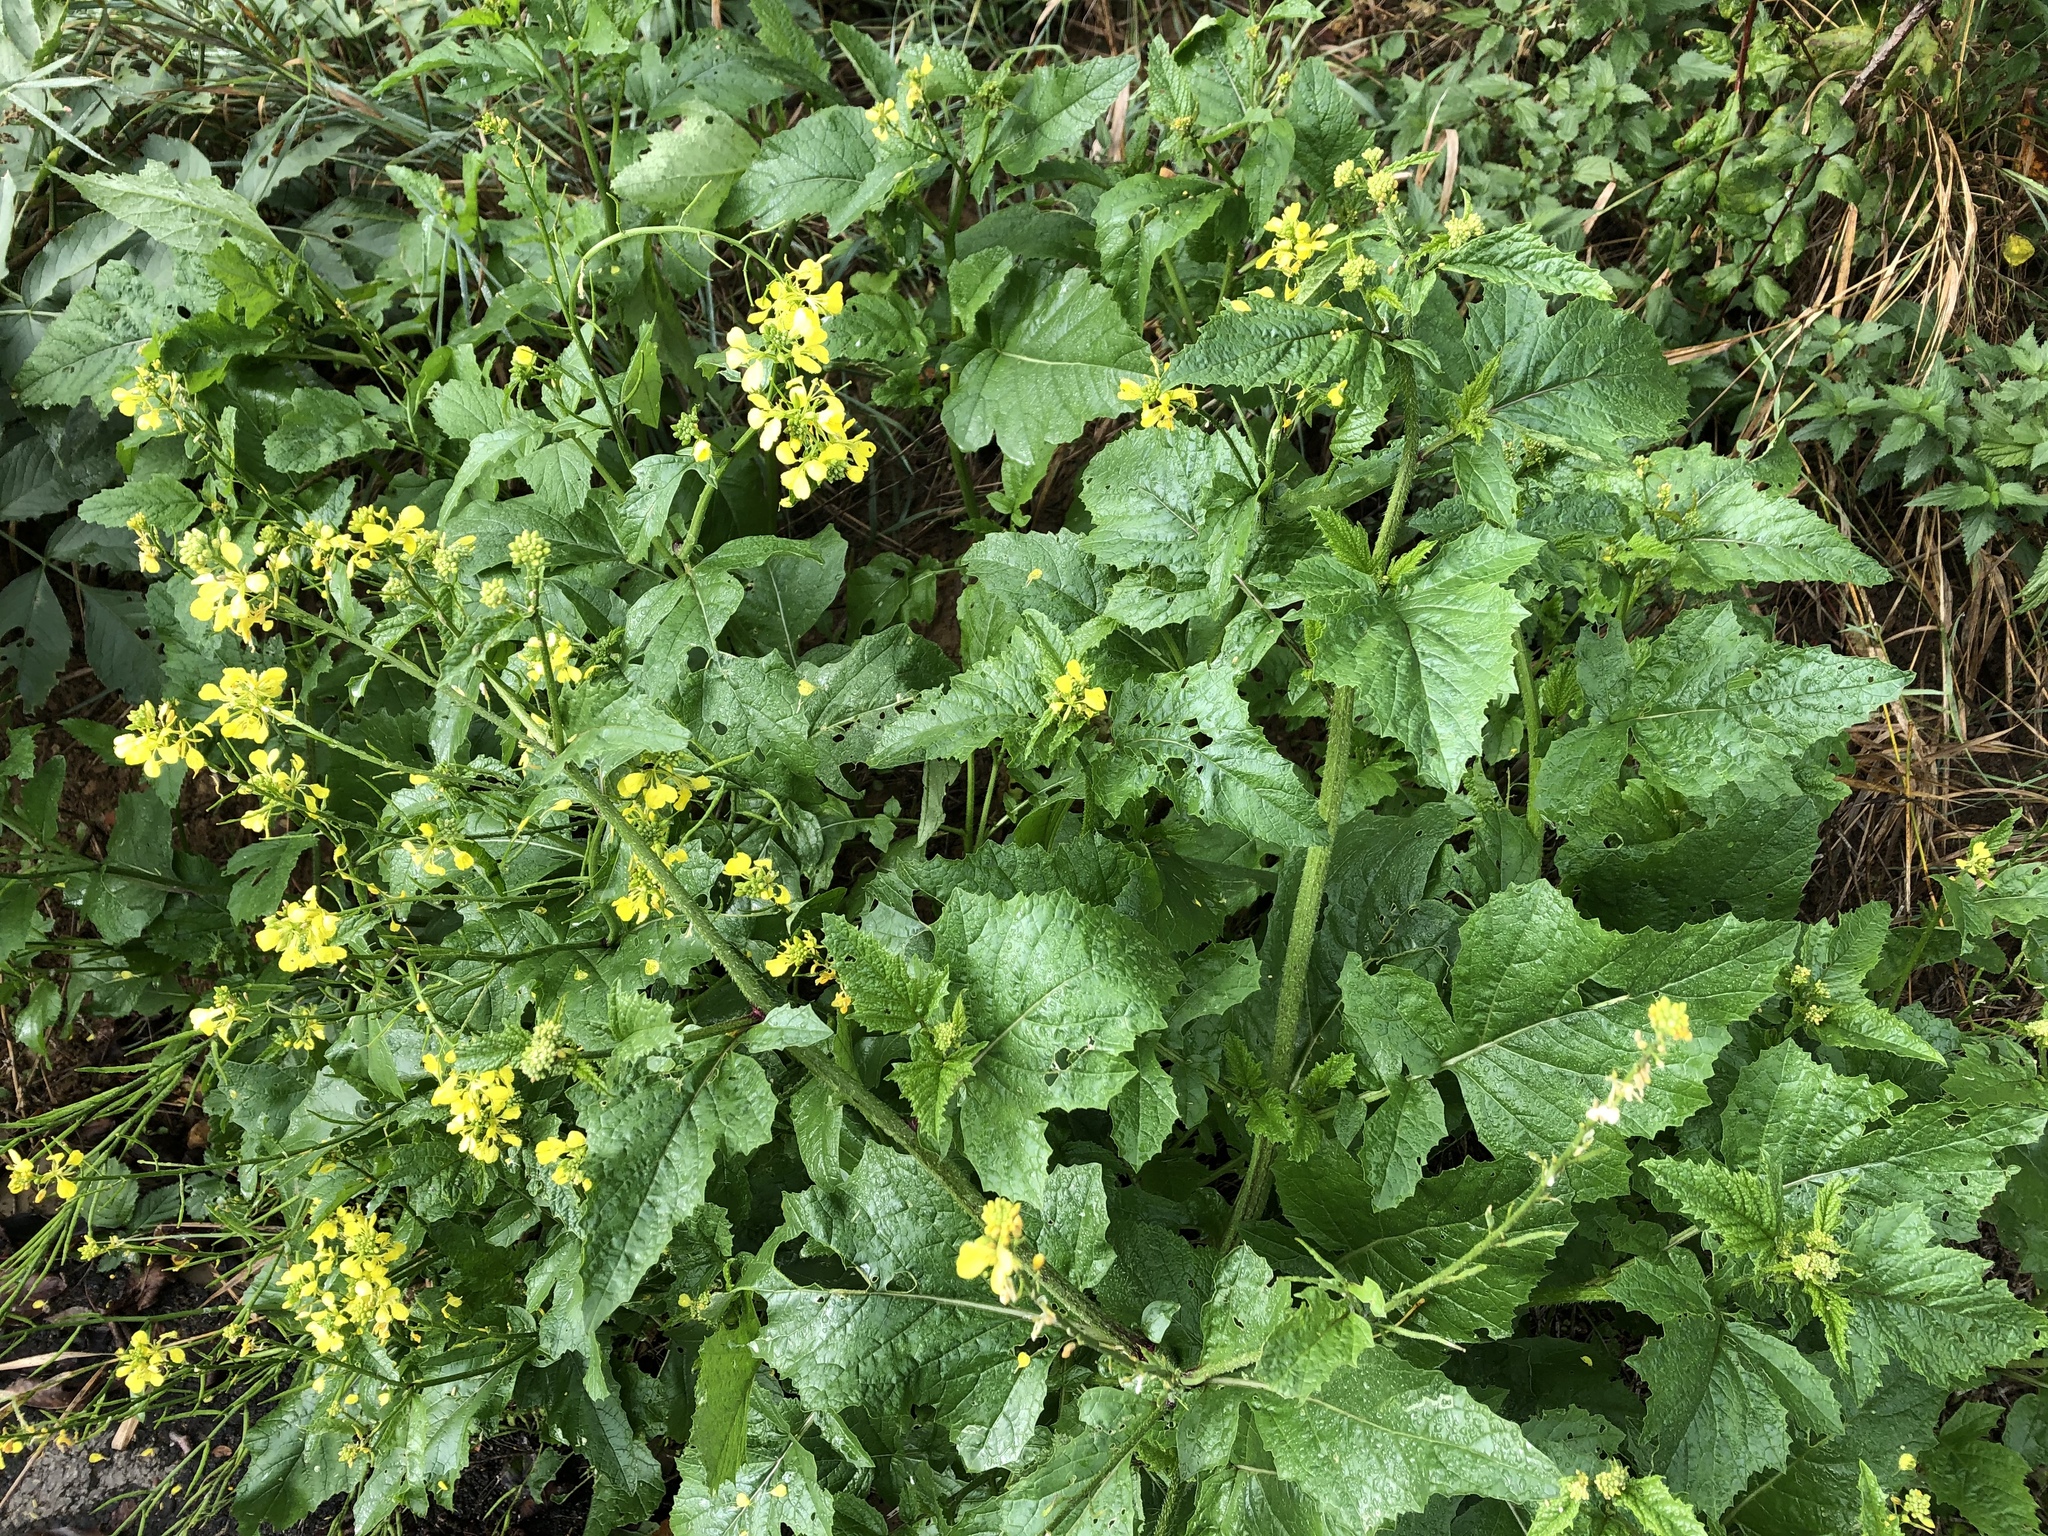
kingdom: Plantae
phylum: Tracheophyta
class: Magnoliopsida
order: Brassicales
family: Brassicaceae
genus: Sinapis
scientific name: Sinapis arvensis
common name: Charlock
